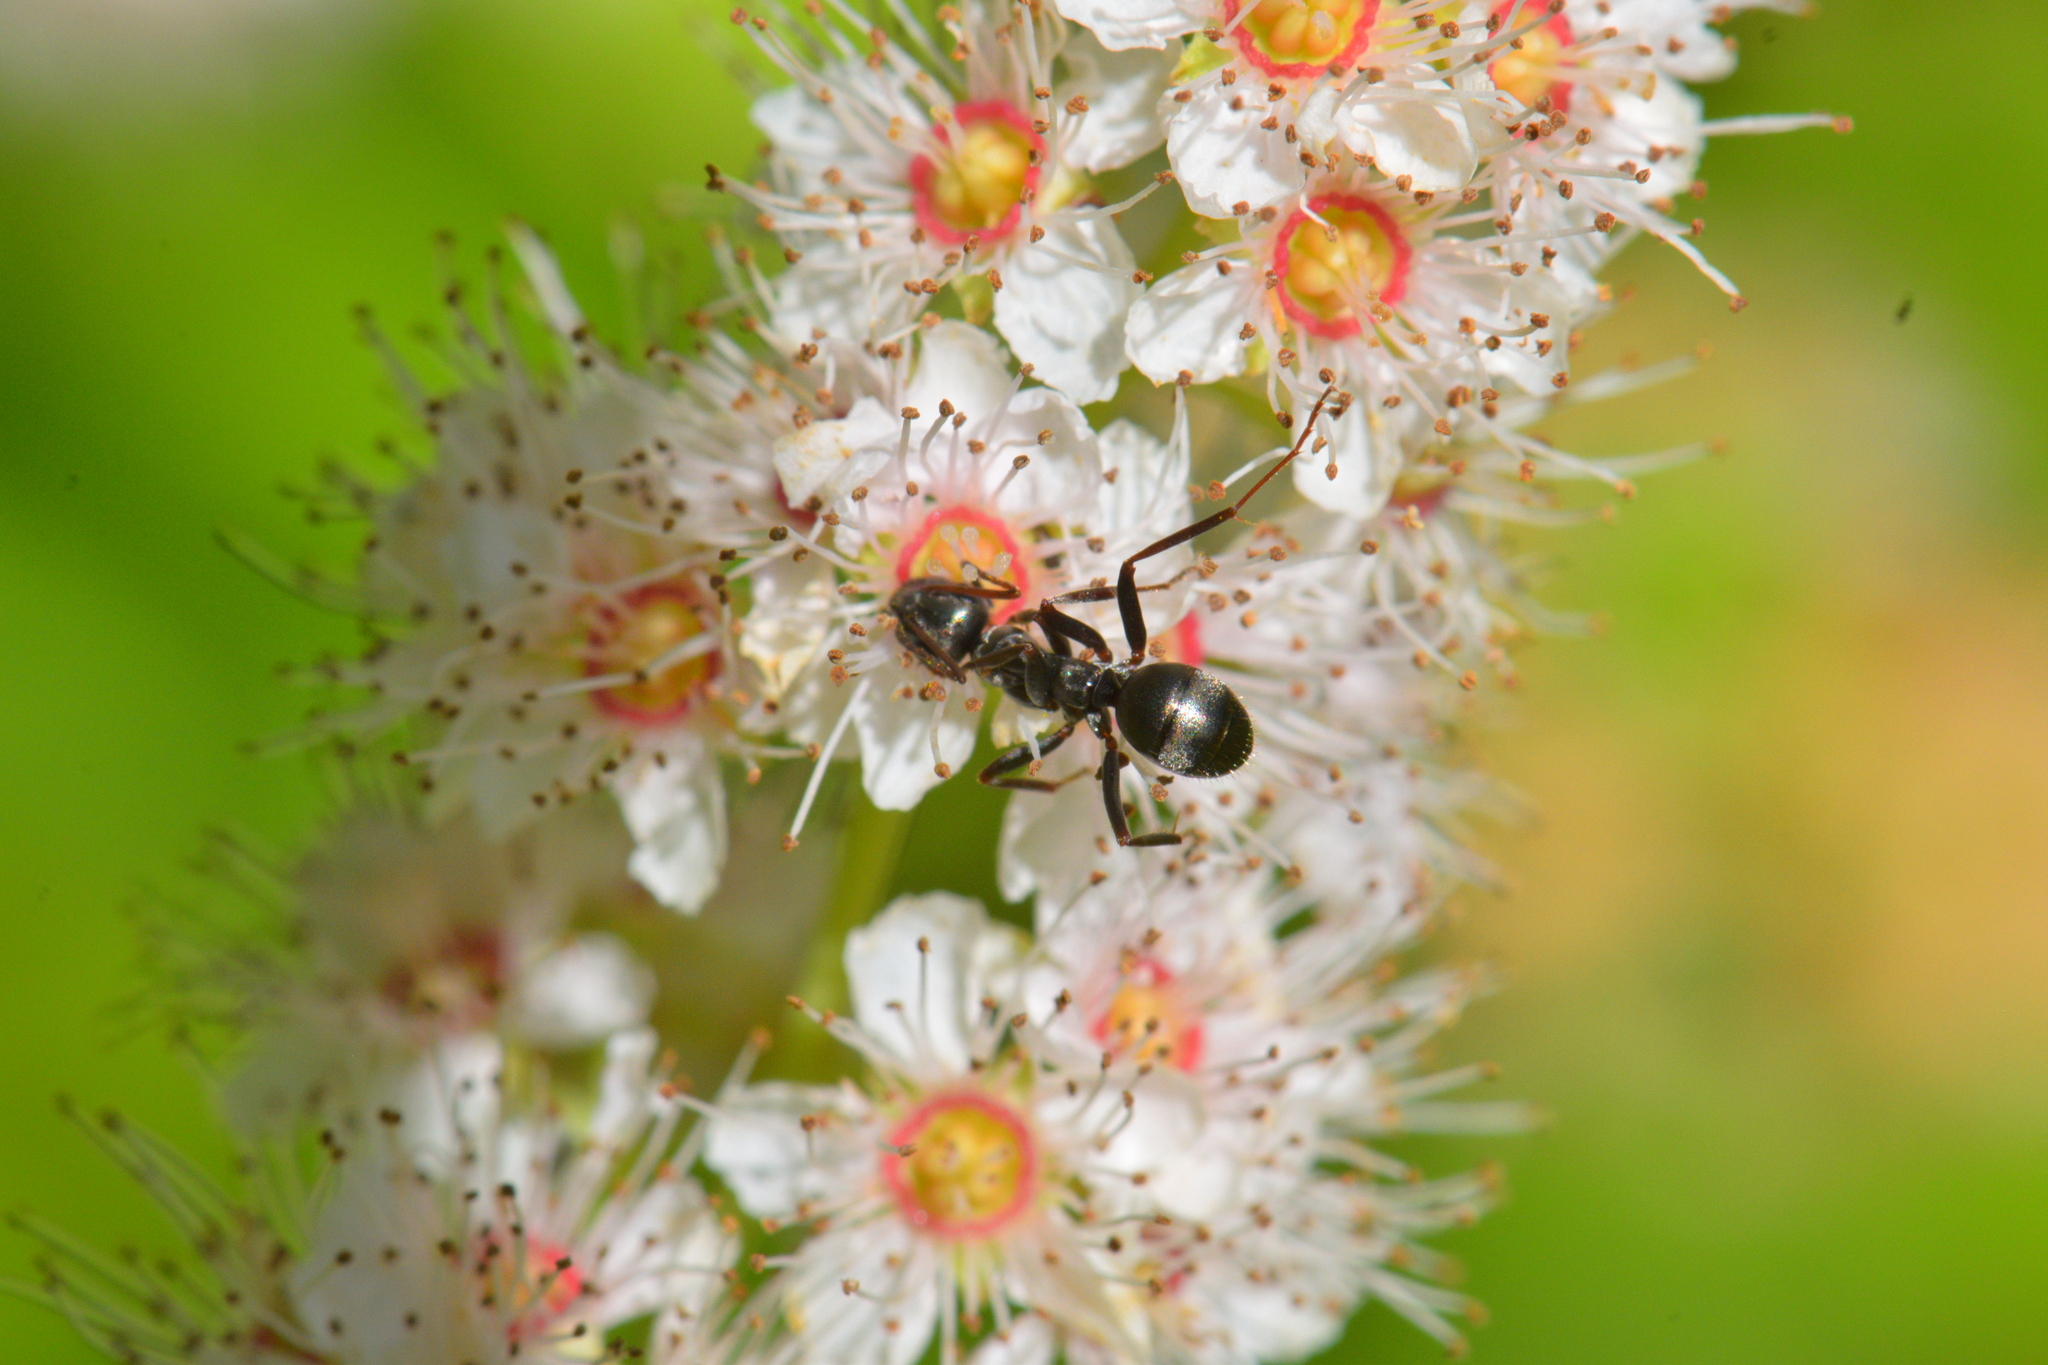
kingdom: Animalia
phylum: Arthropoda
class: Insecta
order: Hymenoptera
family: Formicidae
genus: Formica
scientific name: Formica
